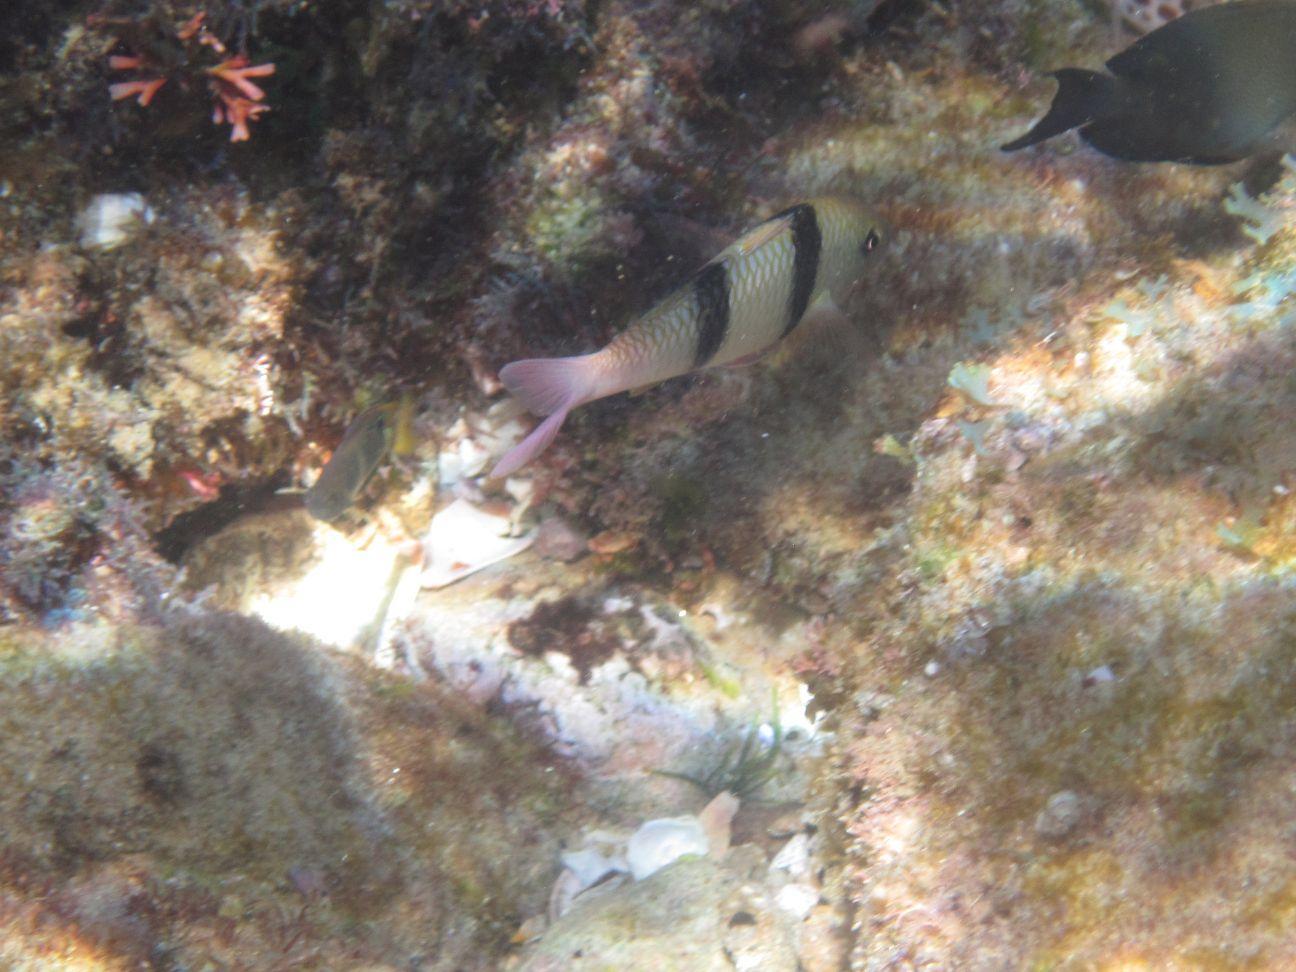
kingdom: Animalia
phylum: Chordata
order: Perciformes
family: Mullidae
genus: Parupeneus
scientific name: Parupeneus trifasciatus
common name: Doublebar goatfish
